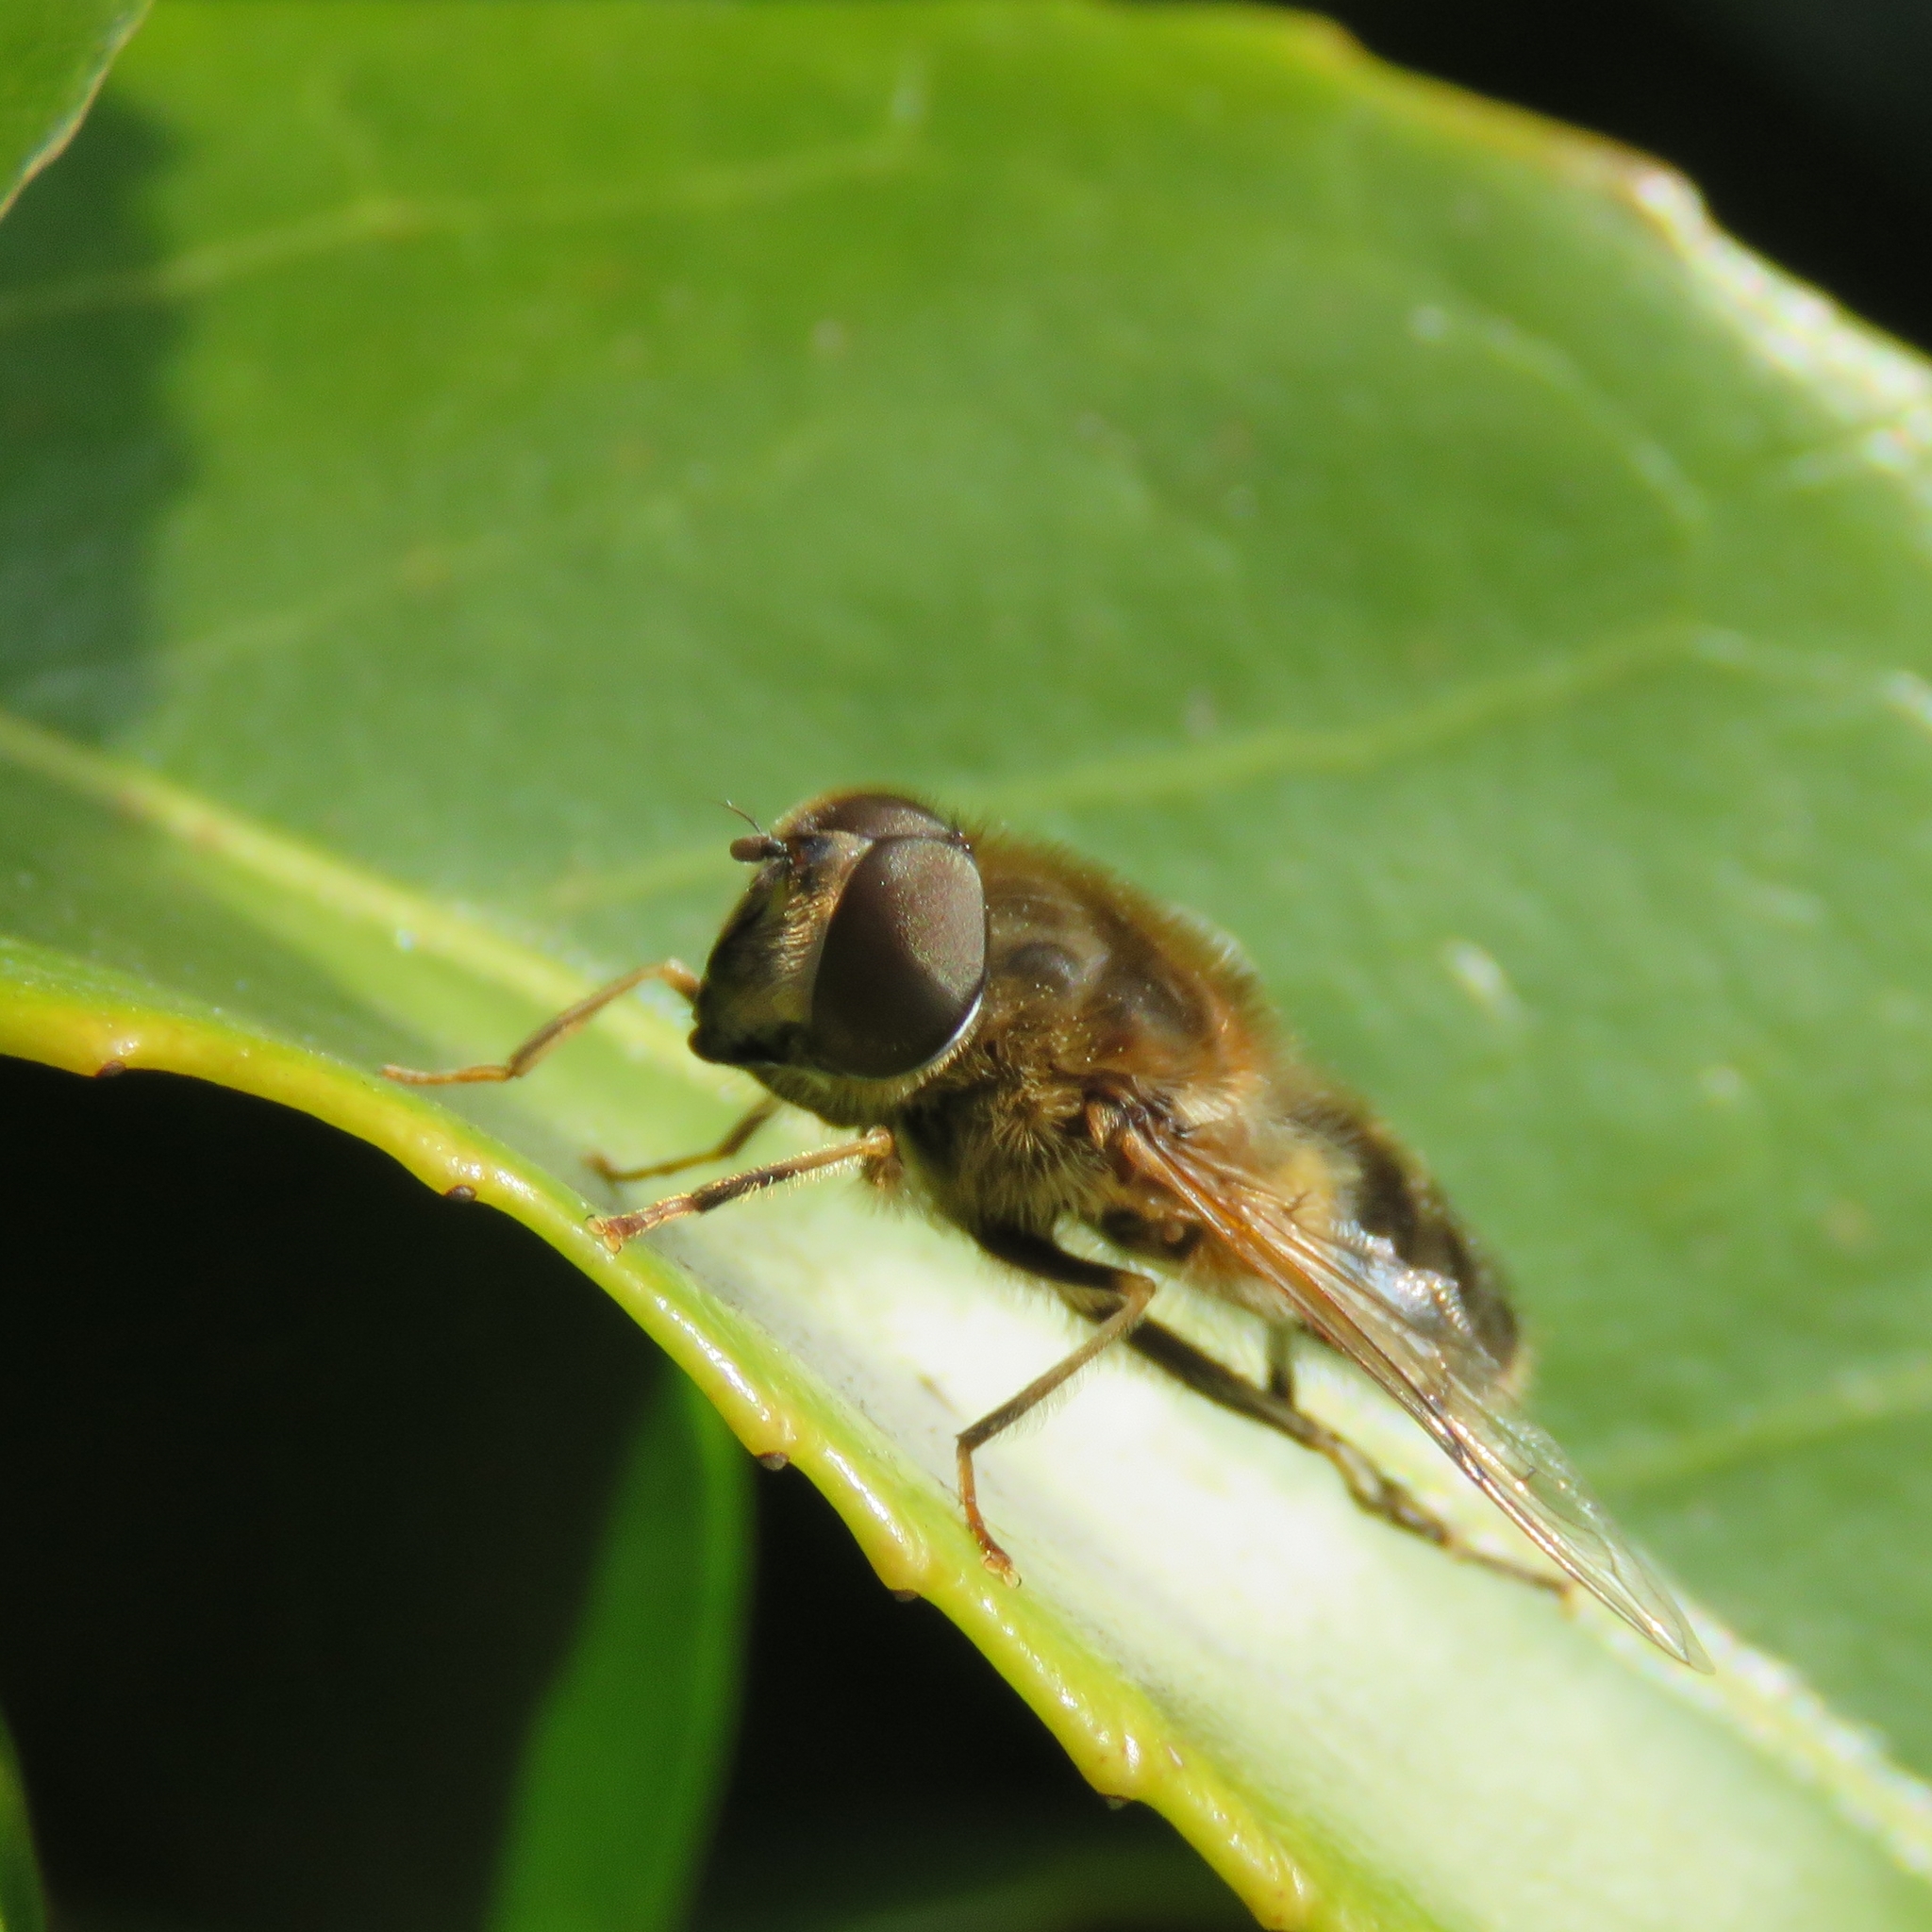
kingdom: Animalia
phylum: Arthropoda
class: Insecta
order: Diptera
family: Syrphidae
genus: Eristalis
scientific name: Eristalis pertinax
